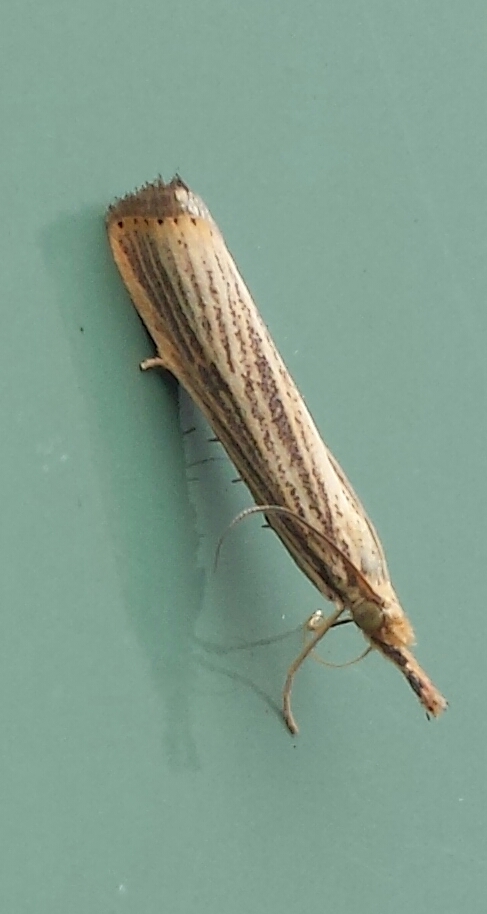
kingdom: Animalia
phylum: Arthropoda
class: Insecta
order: Lepidoptera
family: Crambidae
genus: Agriphila
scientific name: Agriphila vulgivagellus
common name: Vagabond crambus moth
